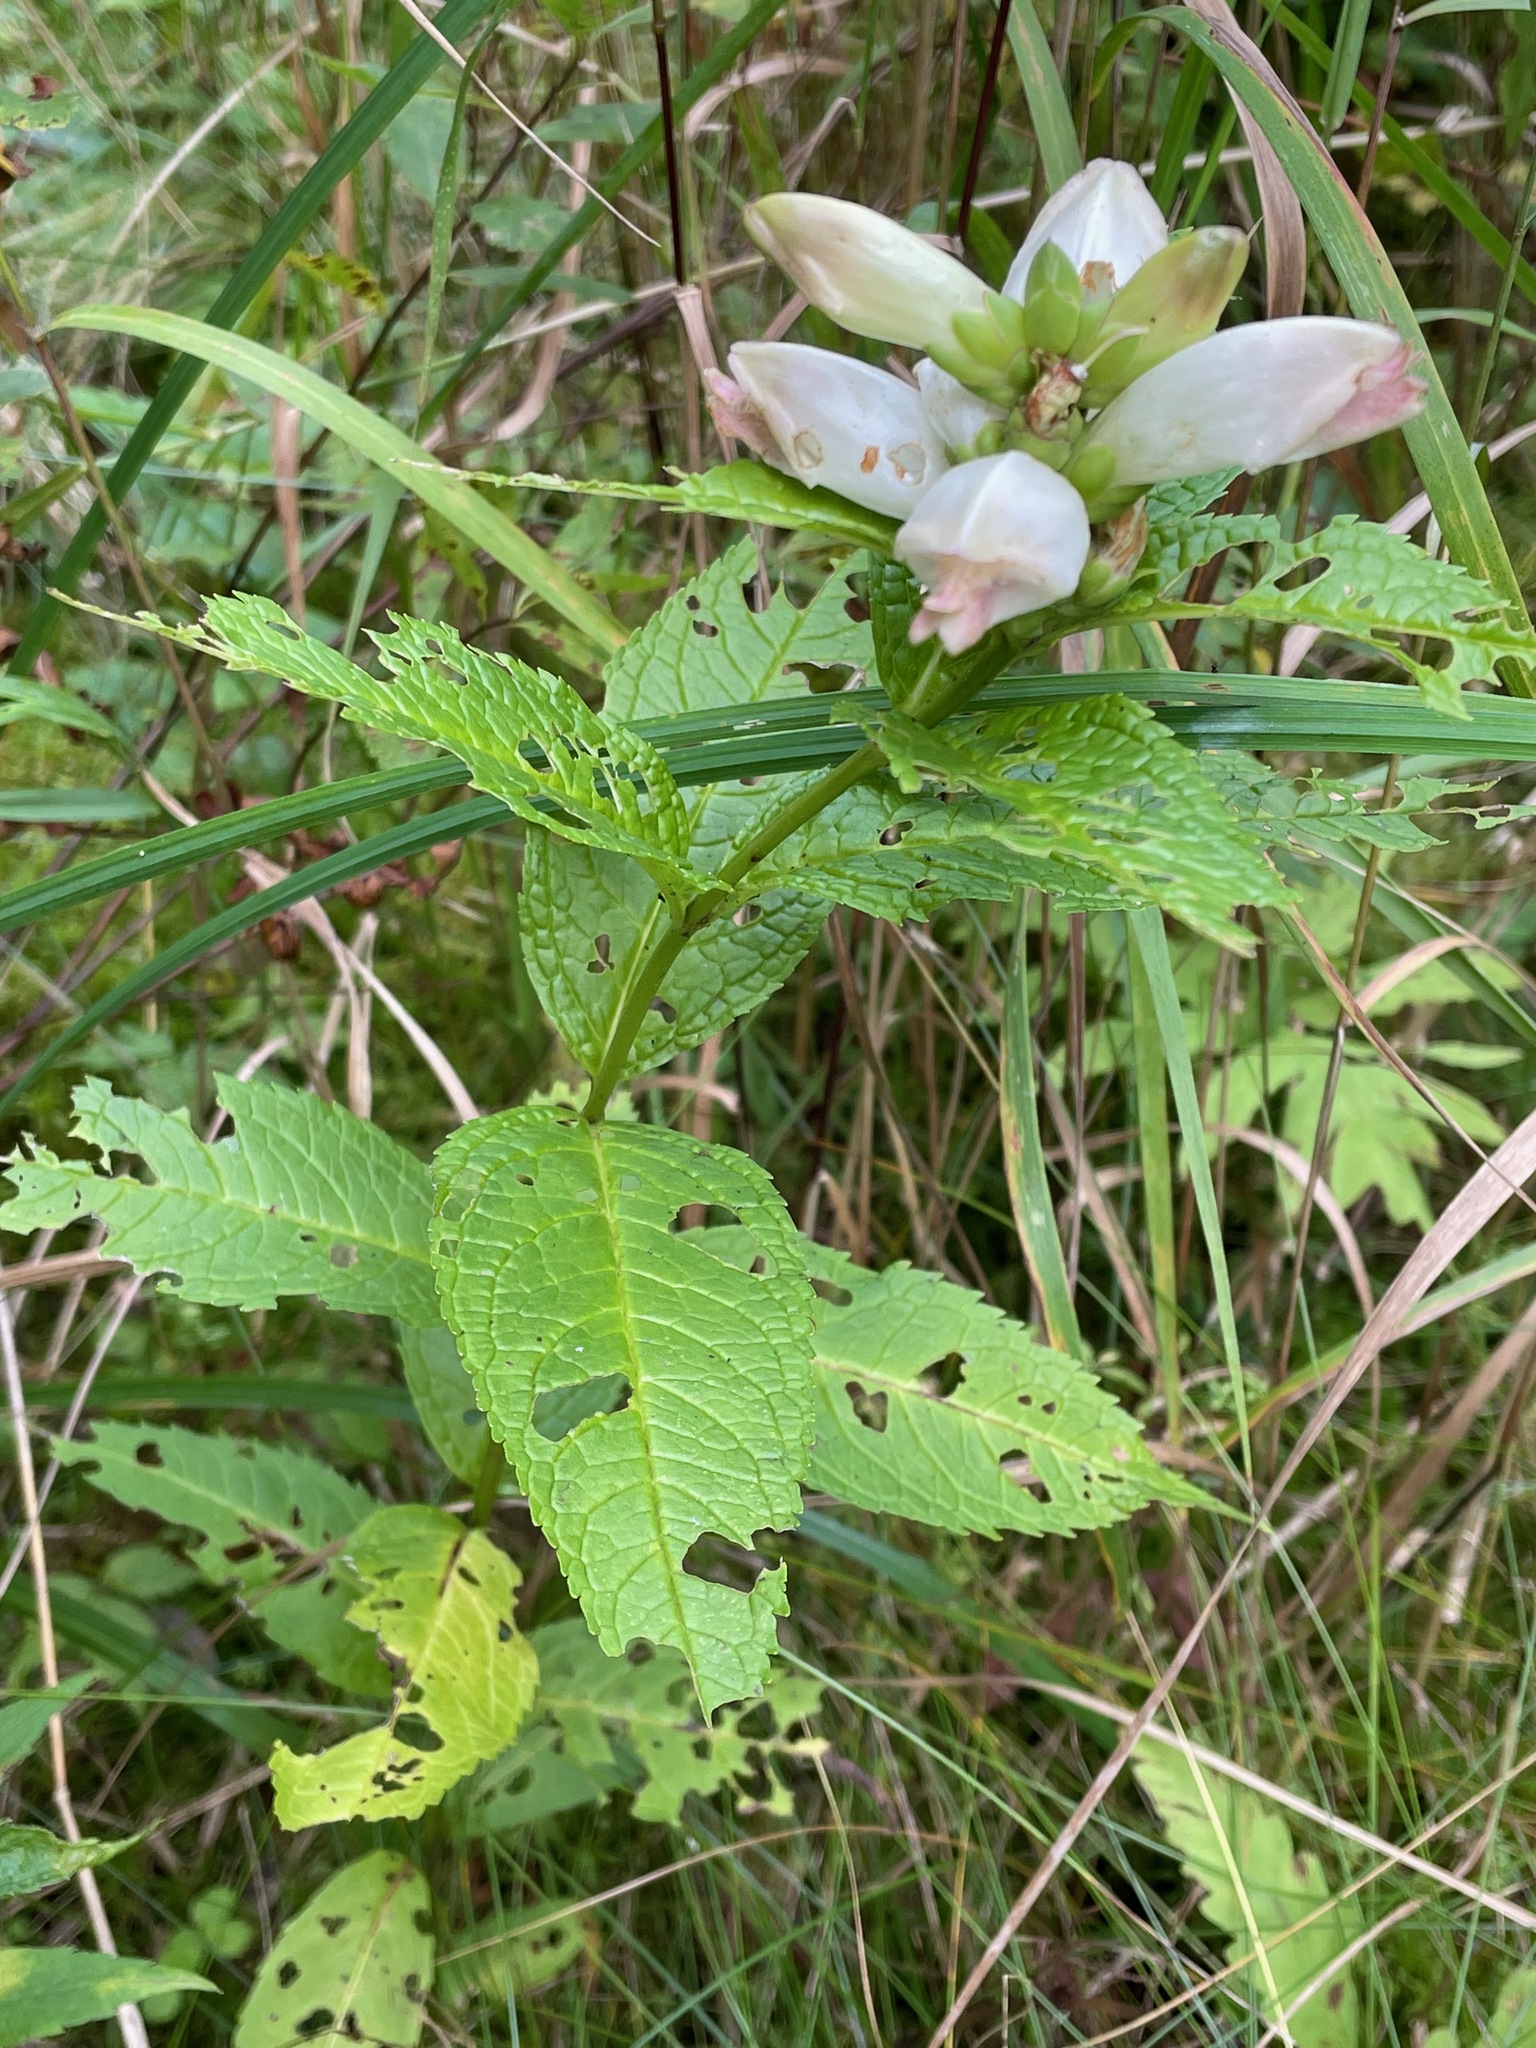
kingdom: Plantae
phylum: Tracheophyta
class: Magnoliopsida
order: Lamiales
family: Plantaginaceae
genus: Chelone
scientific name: Chelone glabra
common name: Snakehead
